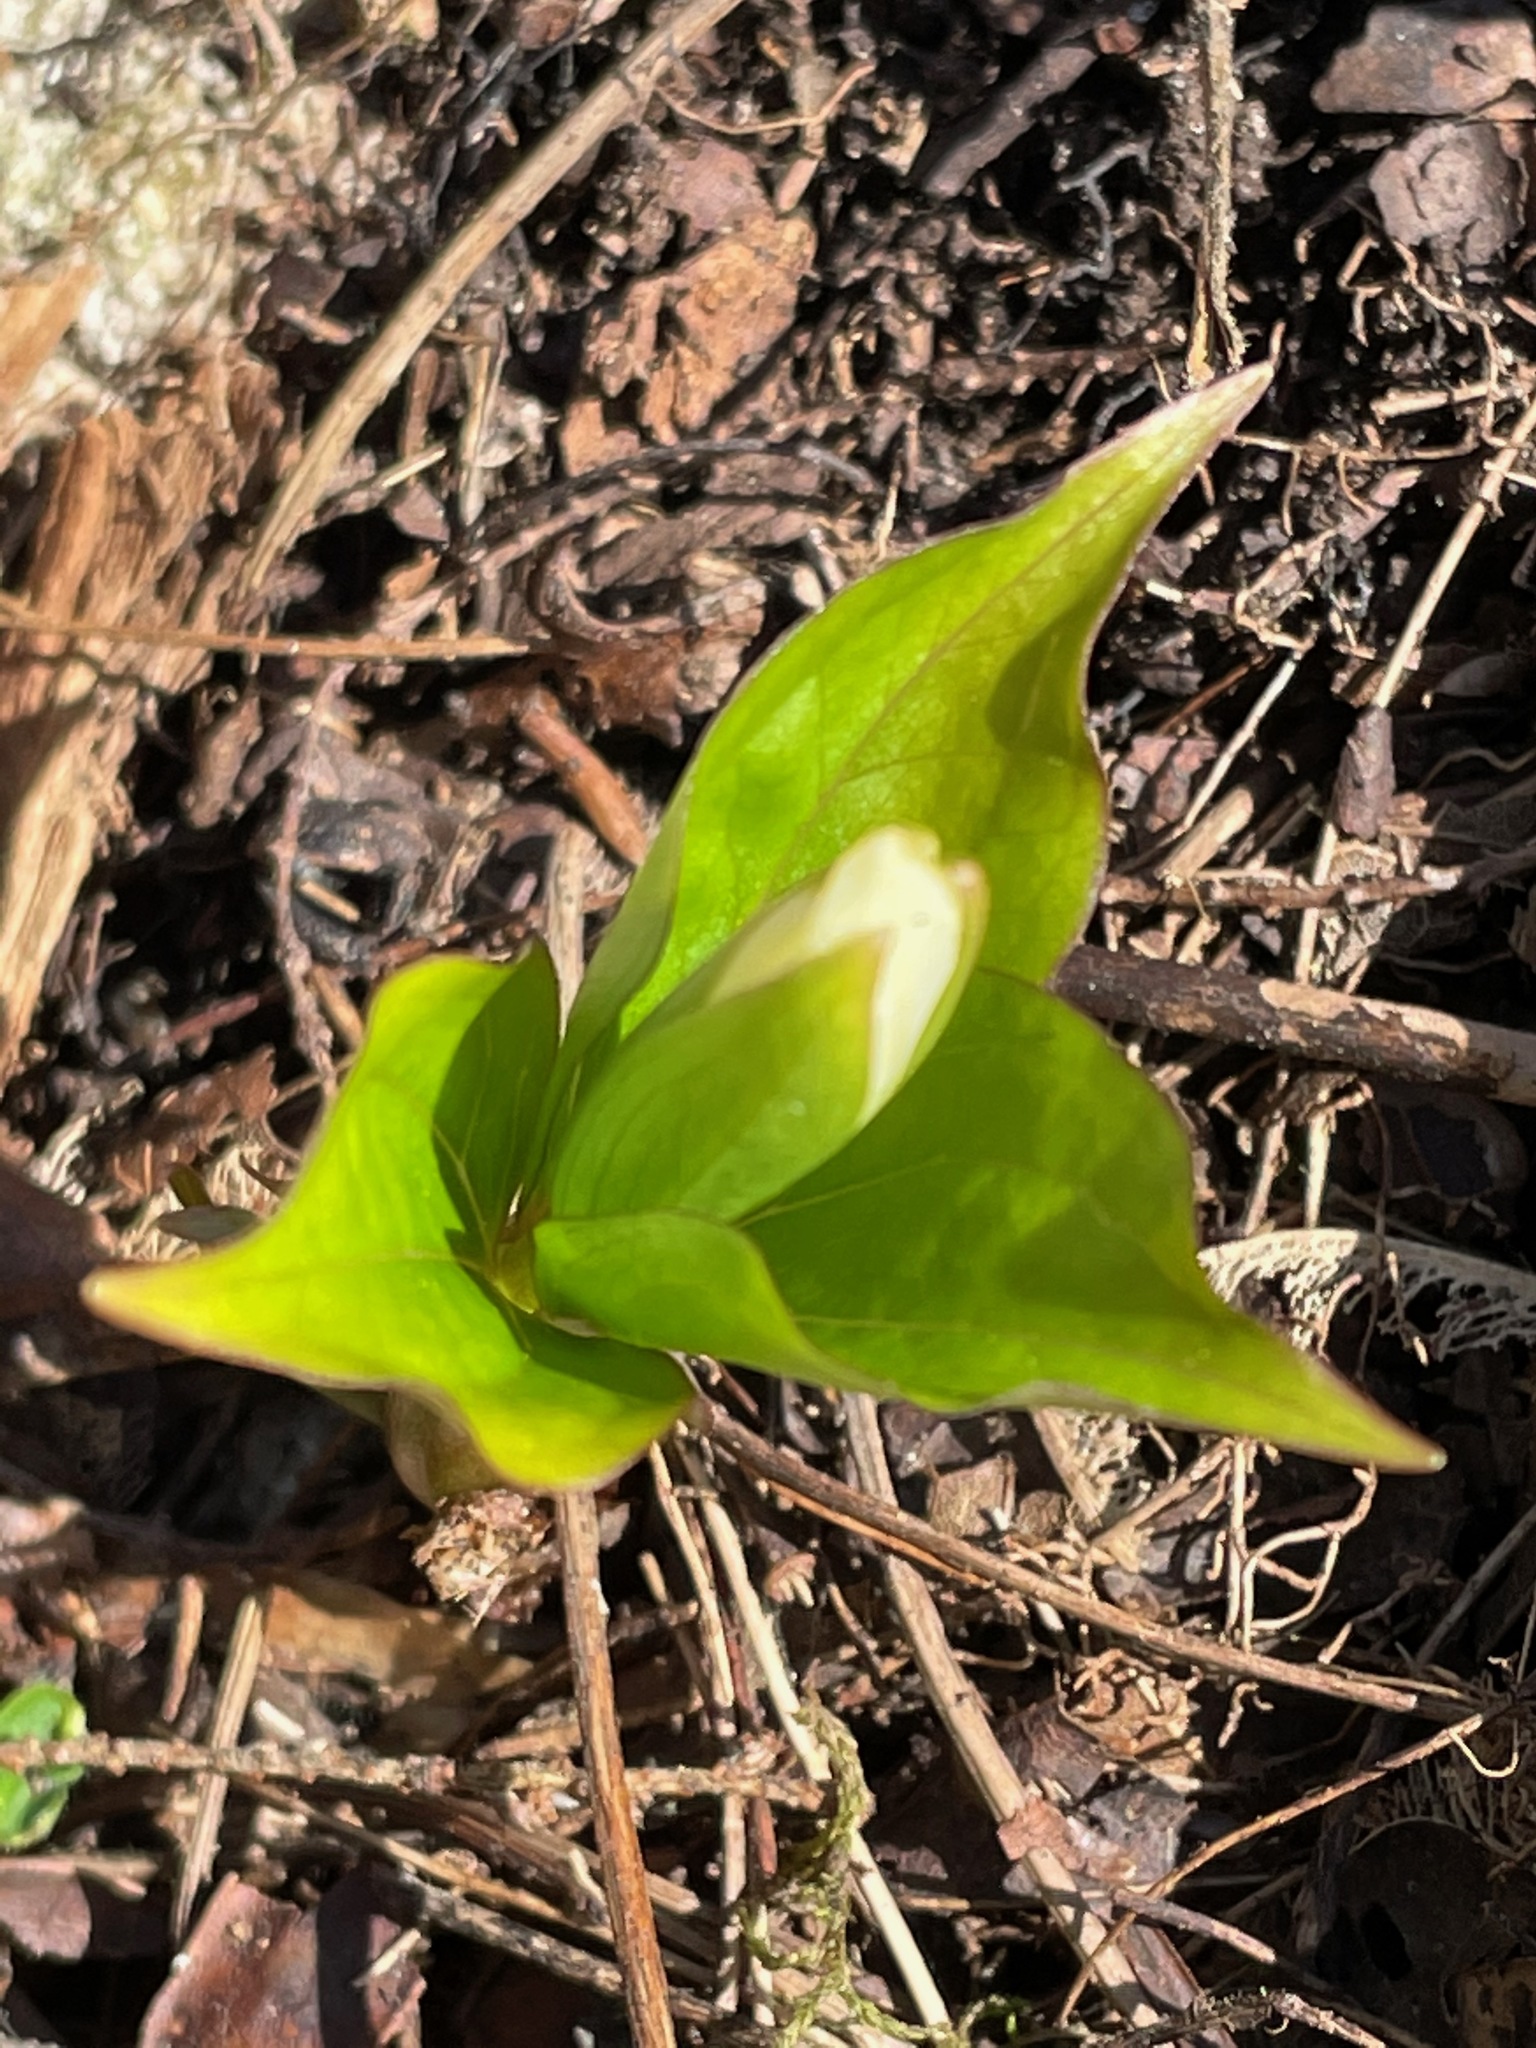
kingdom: Plantae
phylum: Tracheophyta
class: Liliopsida
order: Liliales
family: Melanthiaceae
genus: Trillium
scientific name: Trillium grandiflorum
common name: Great white trillium
